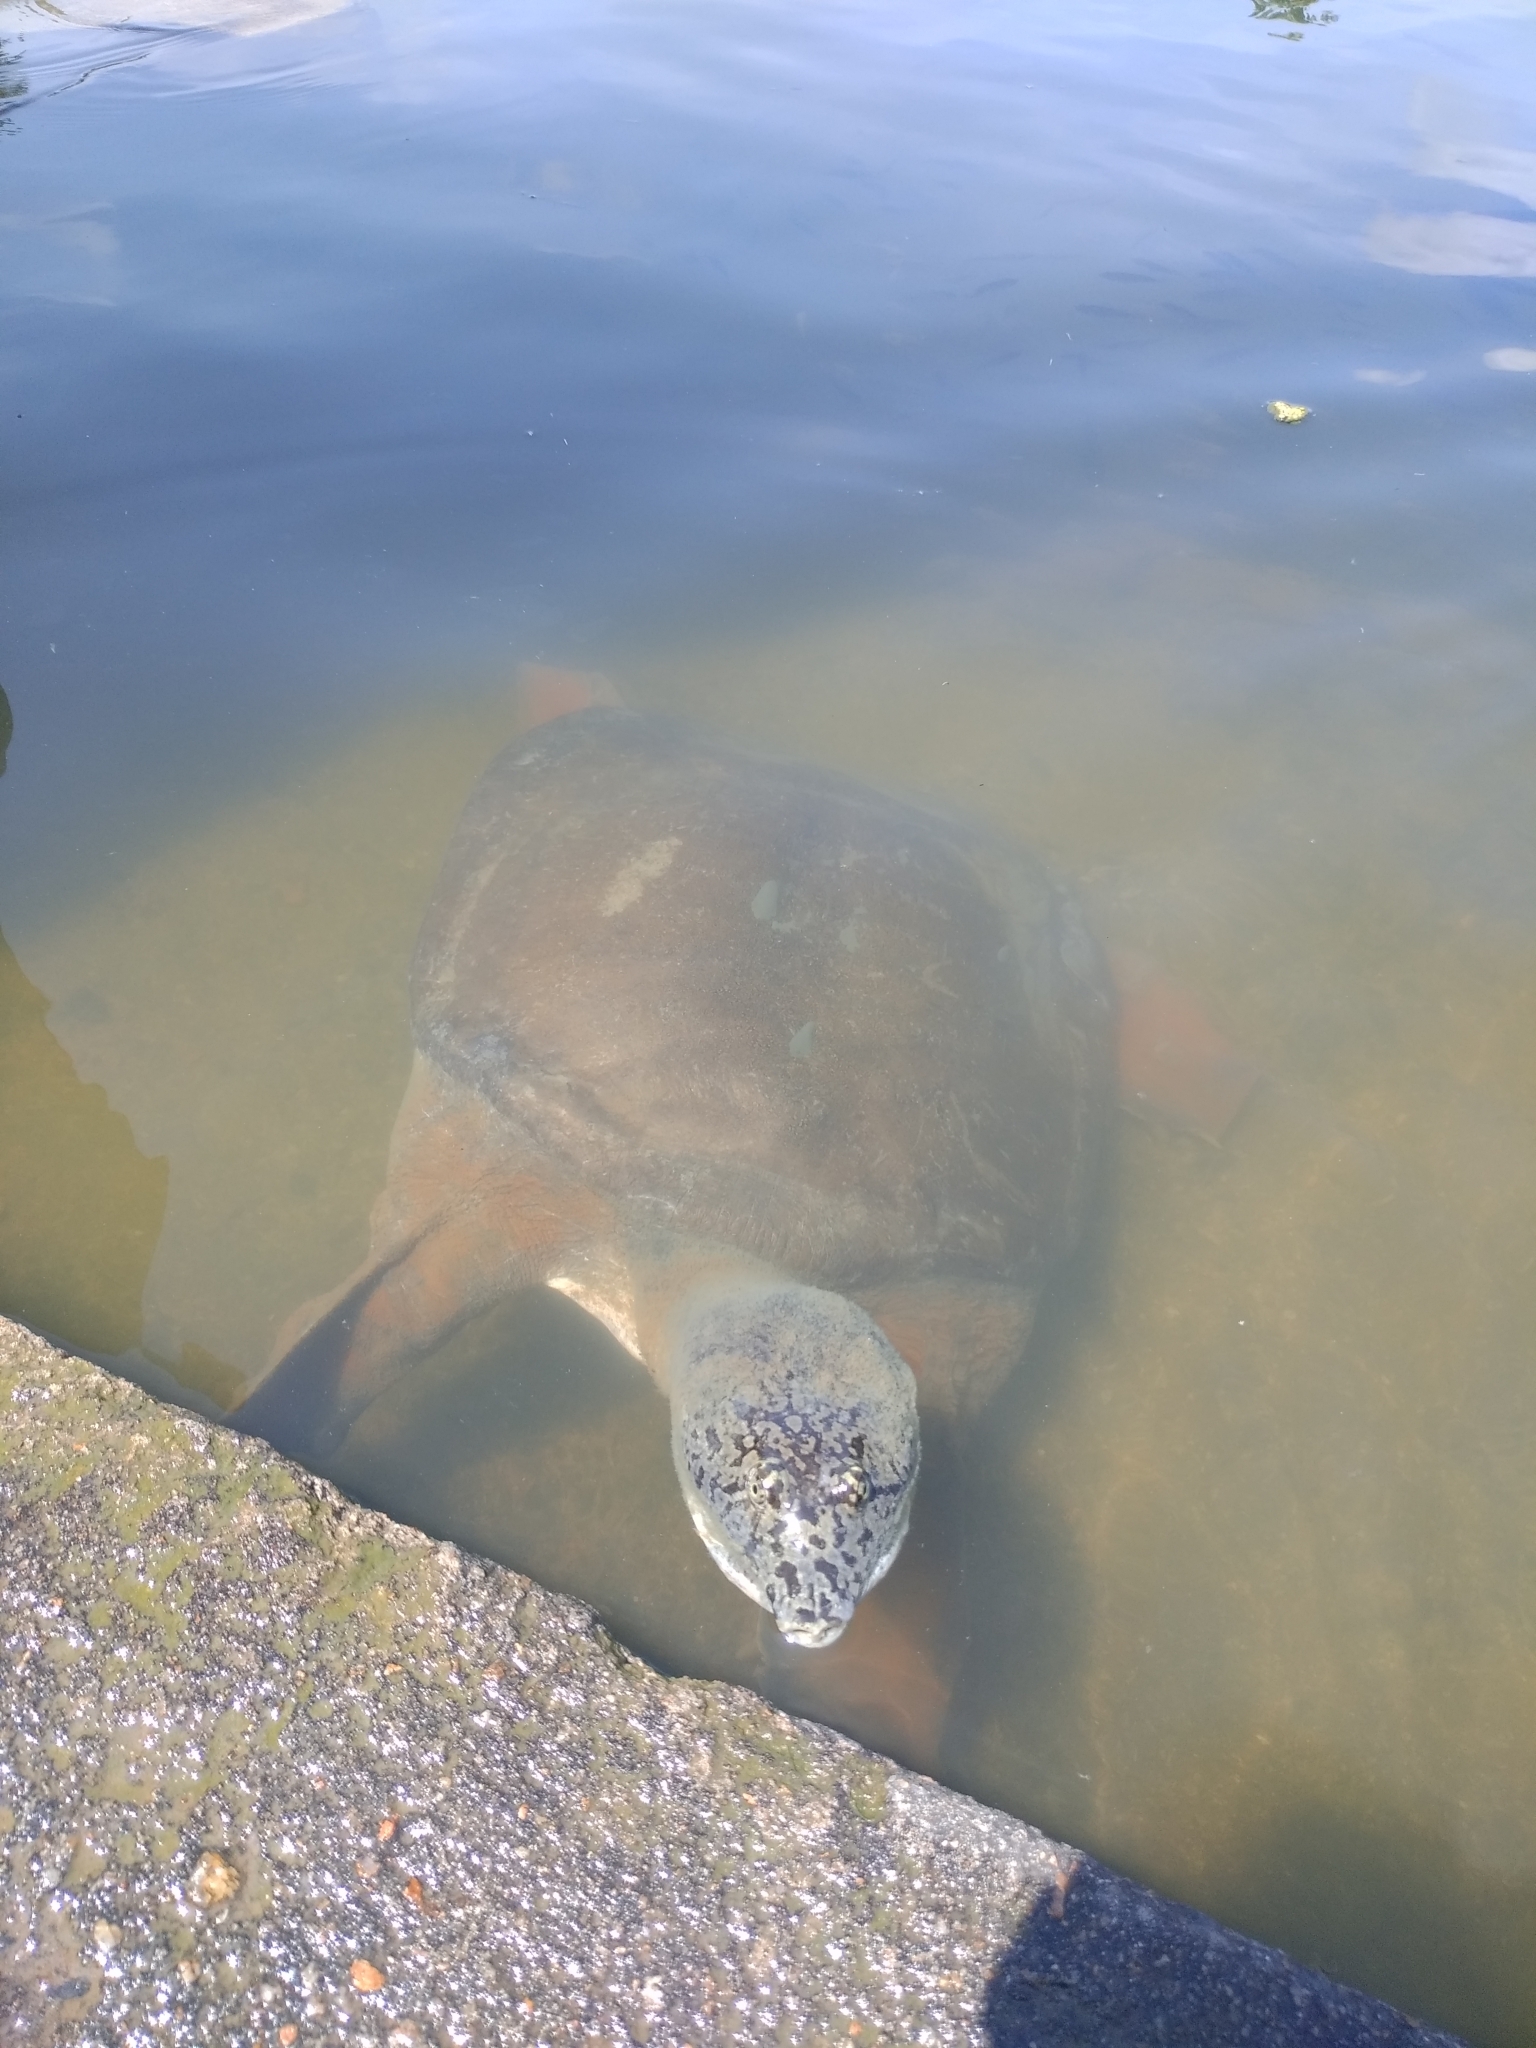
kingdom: Animalia
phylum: Chordata
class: Testudines
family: Trionychidae
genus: Nilssonia
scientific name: Nilssonia gangetica
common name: Indian softshell turtle
